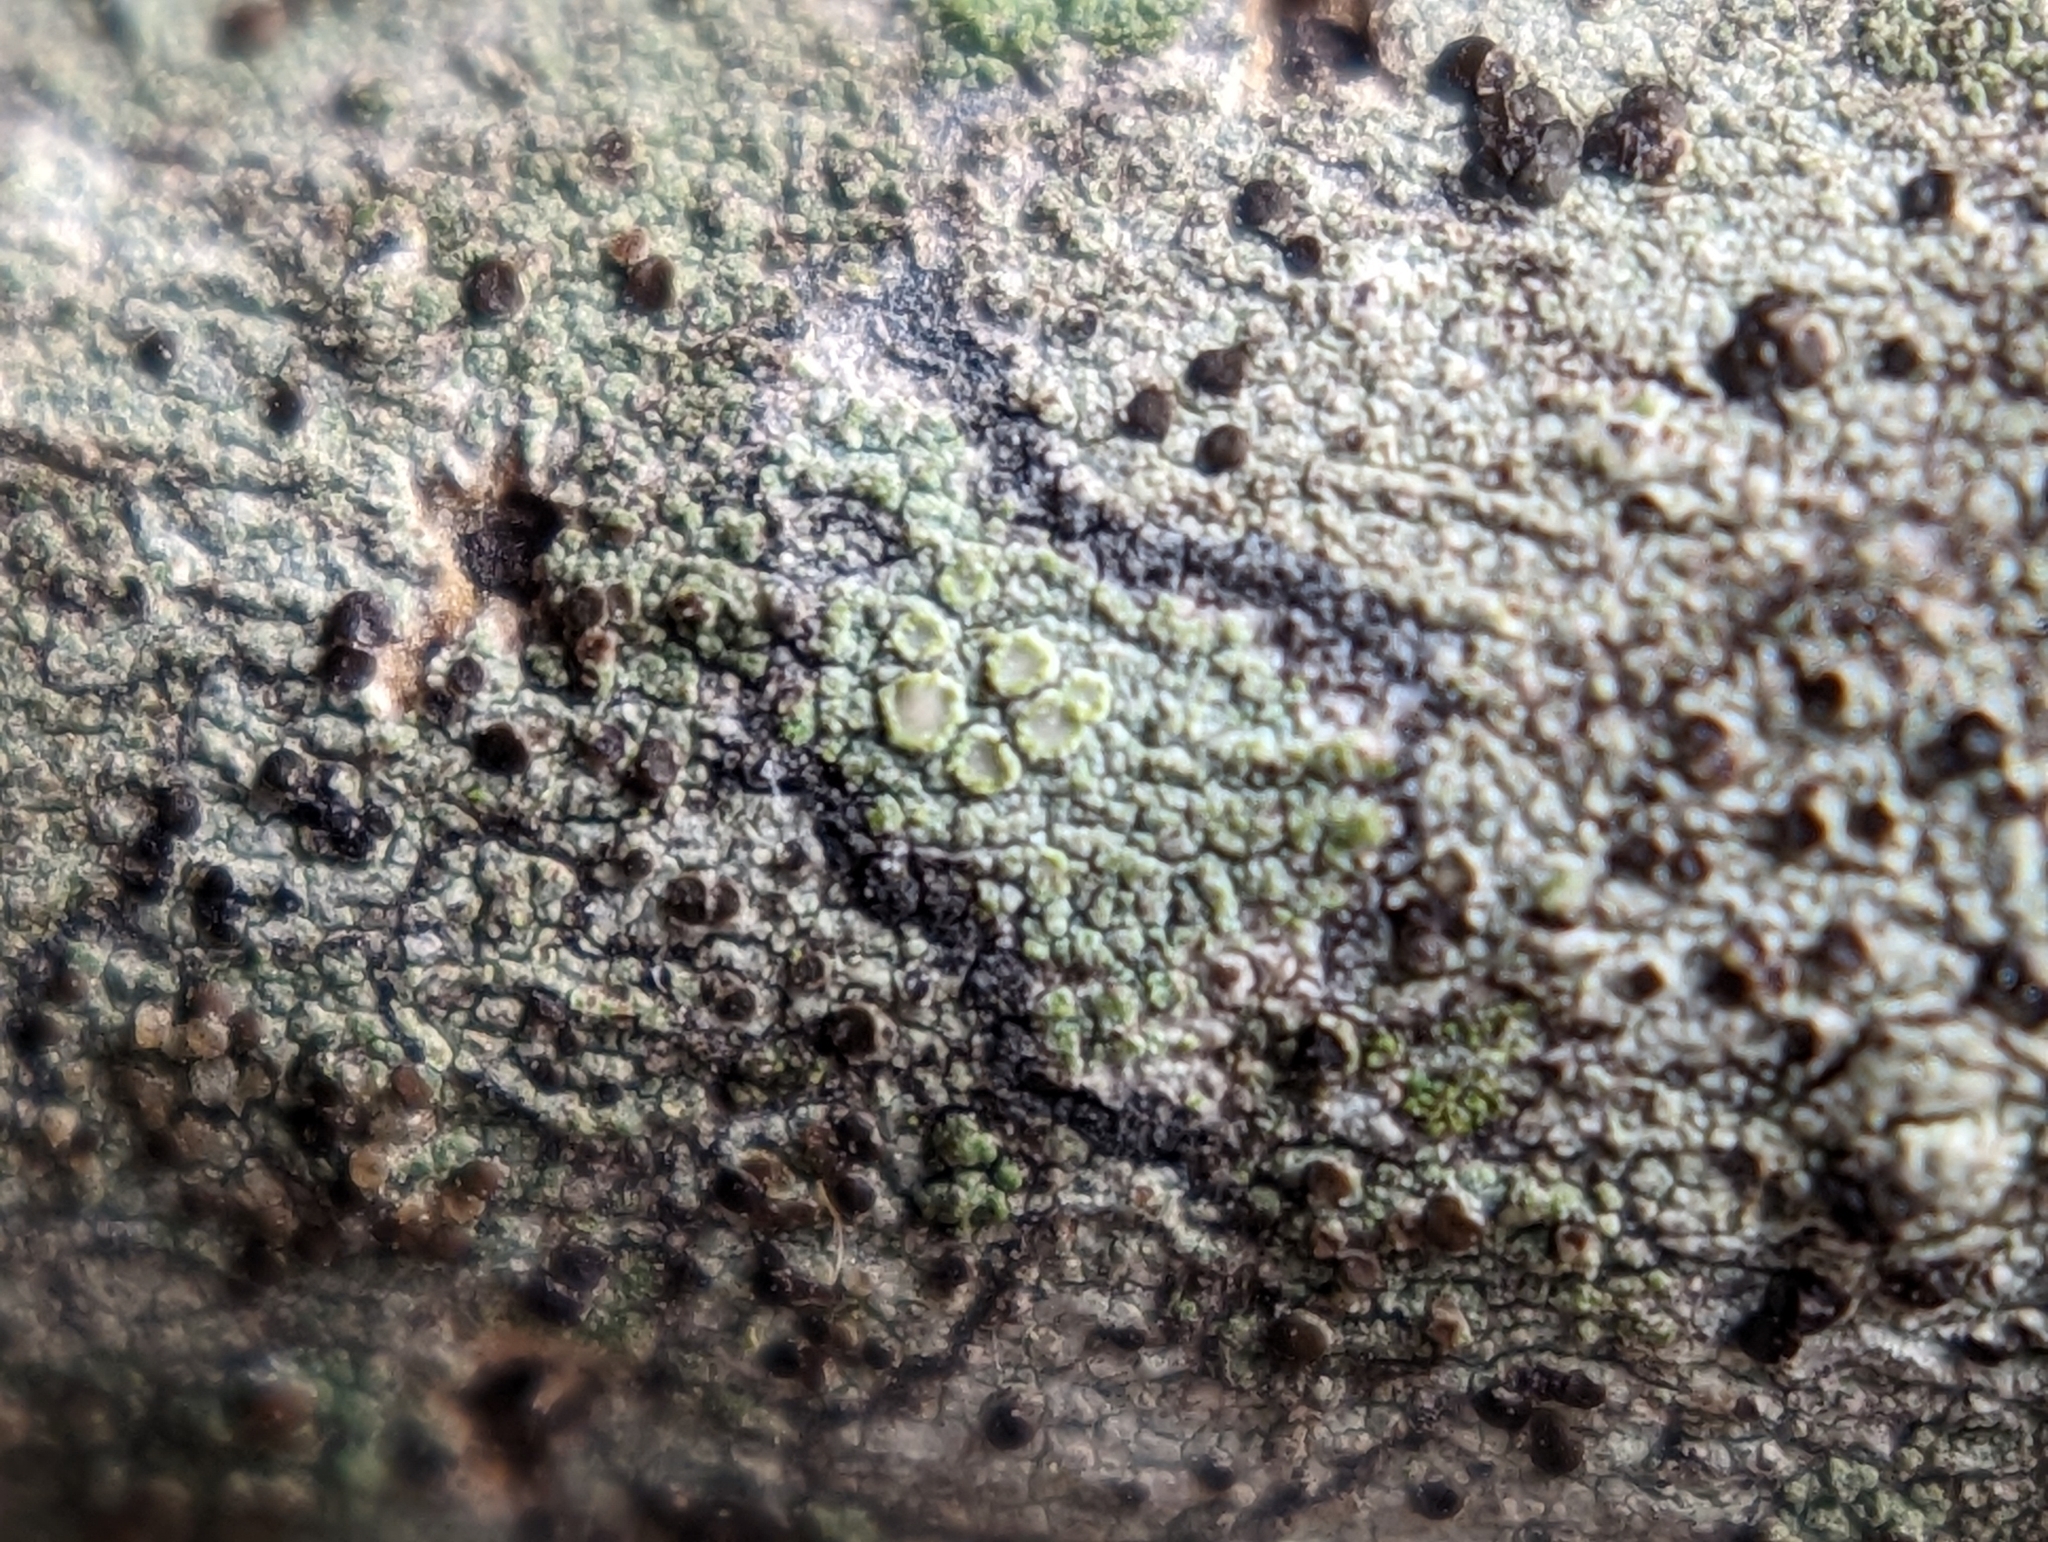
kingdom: Fungi
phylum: Ascomycota
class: Lecanoromycetes
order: Lecanorales
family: Lecanoraceae
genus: Lecanora
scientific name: Lecanora strobilina
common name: Mealy rim-lichen
